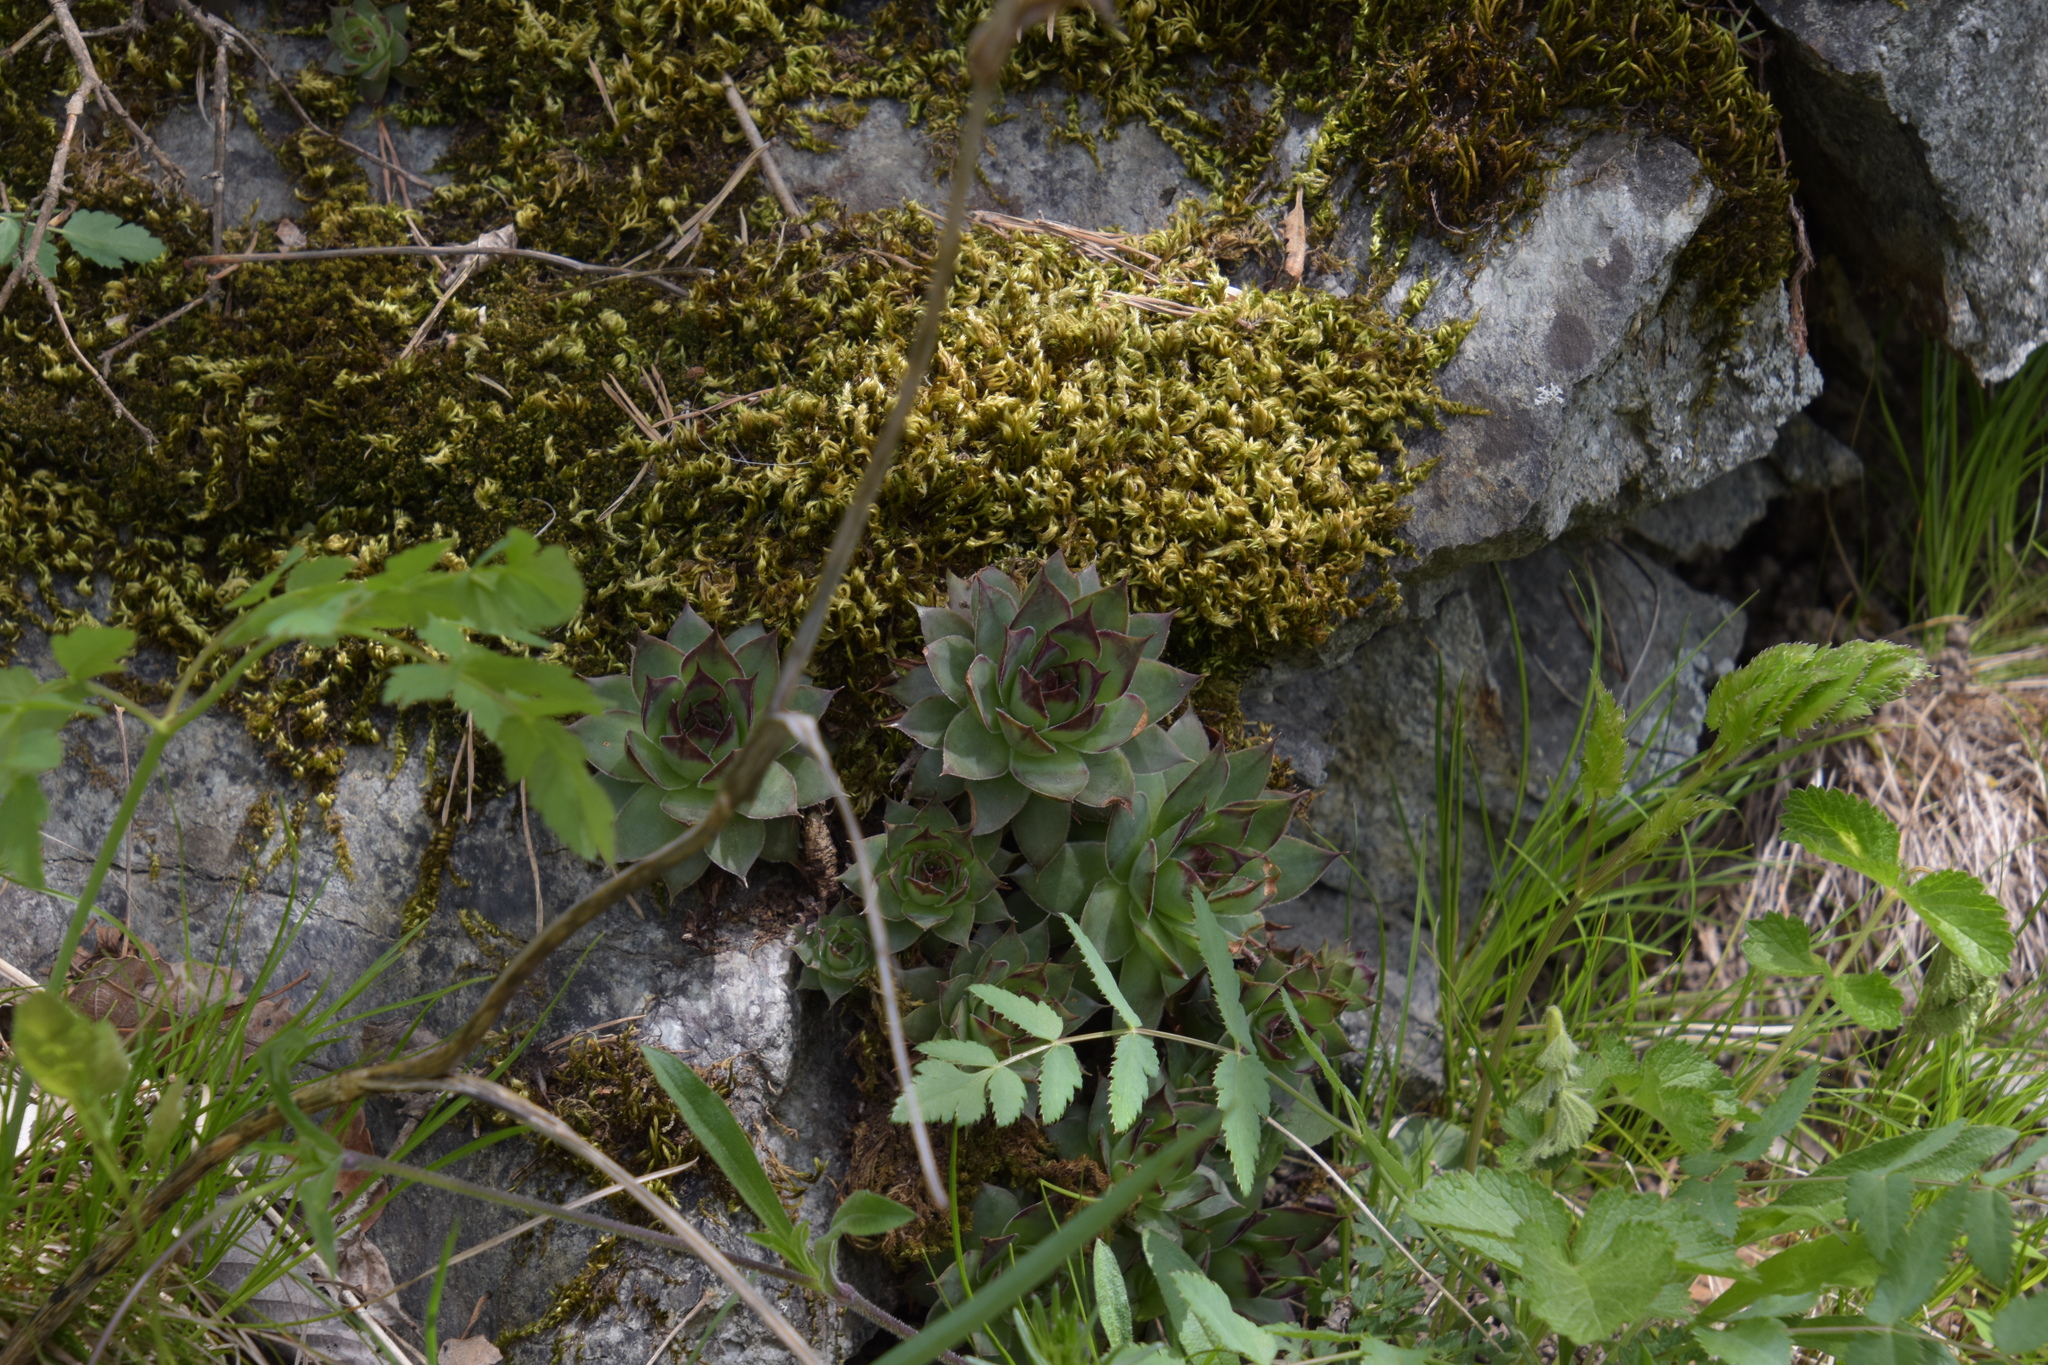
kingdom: Plantae
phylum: Tracheophyta
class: Magnoliopsida
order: Saxifragales
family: Crassulaceae
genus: Sempervivum
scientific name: Sempervivum tectorum
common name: House-leek
